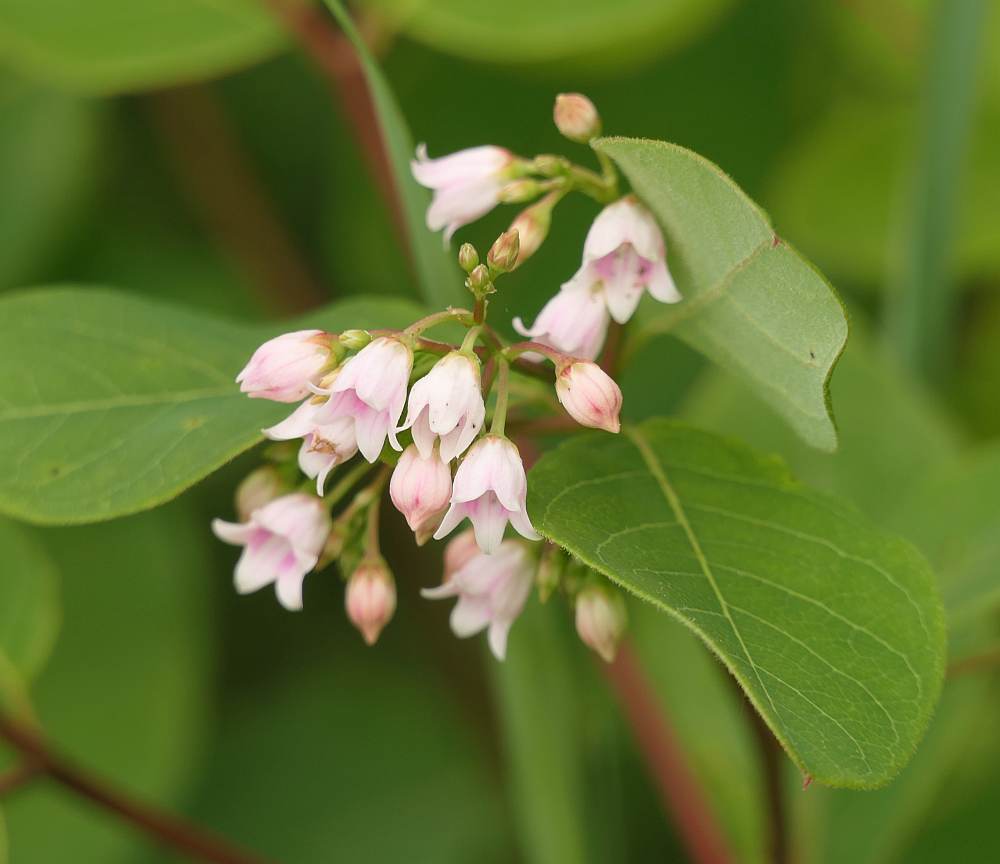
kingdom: Plantae
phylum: Tracheophyta
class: Magnoliopsida
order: Gentianales
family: Apocynaceae
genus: Apocynum
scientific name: Apocynum androsaemifolium
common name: Spreading dogbane
